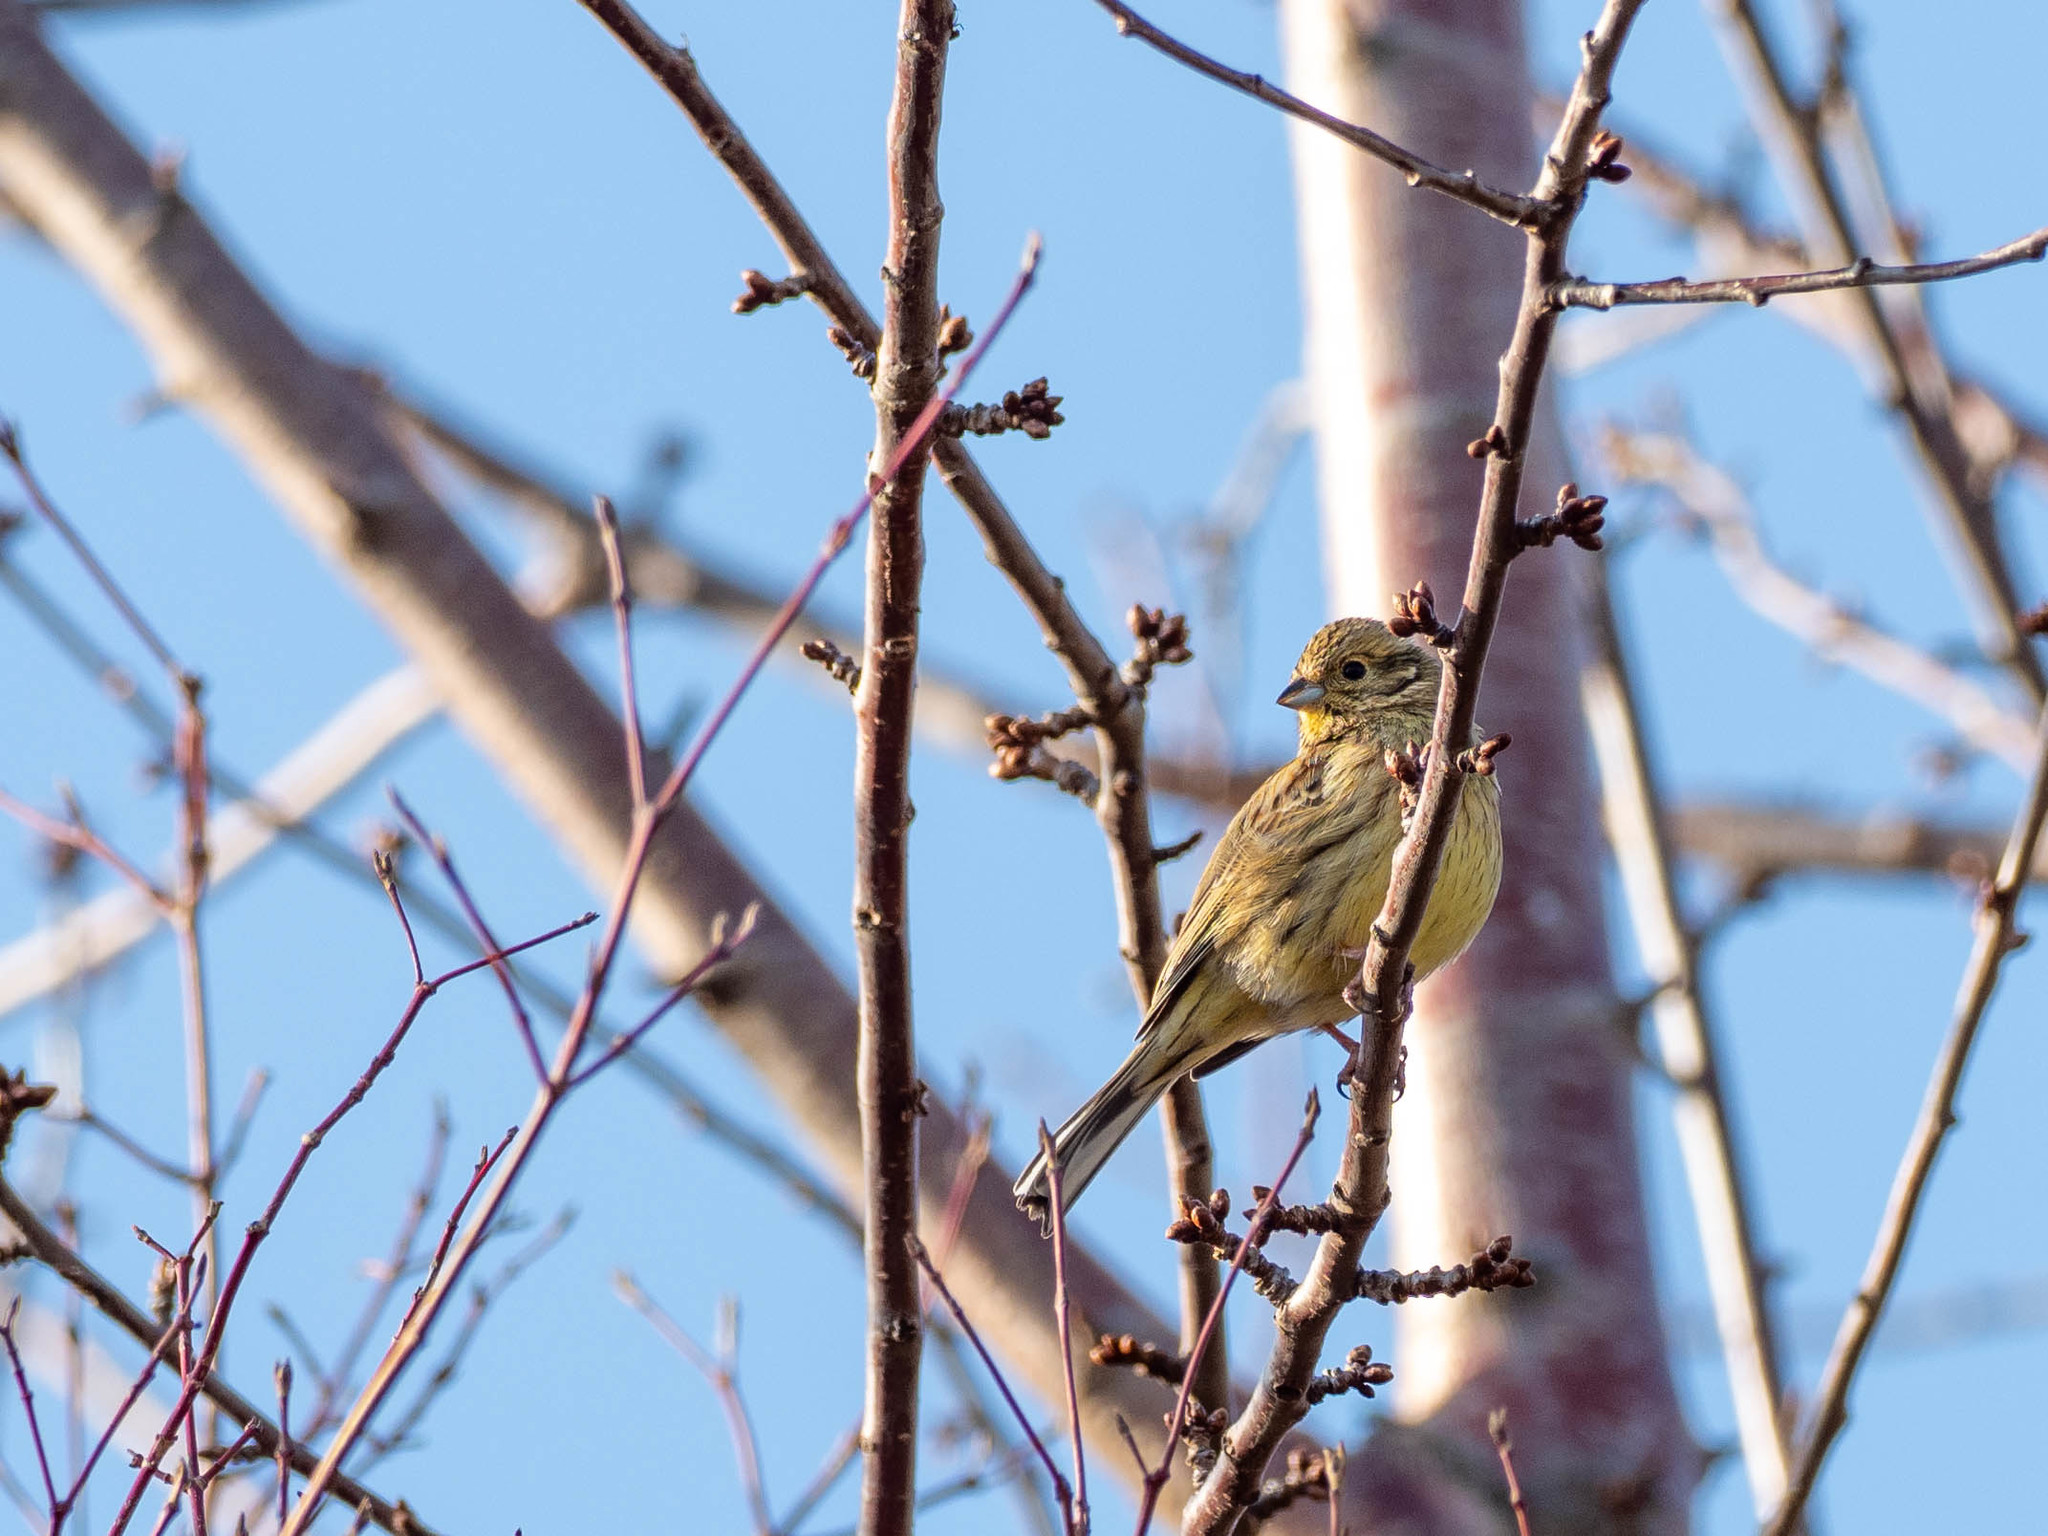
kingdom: Animalia
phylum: Chordata
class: Aves
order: Passeriformes
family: Emberizidae
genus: Emberiza
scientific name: Emberiza cirlus
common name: Cirl bunting
